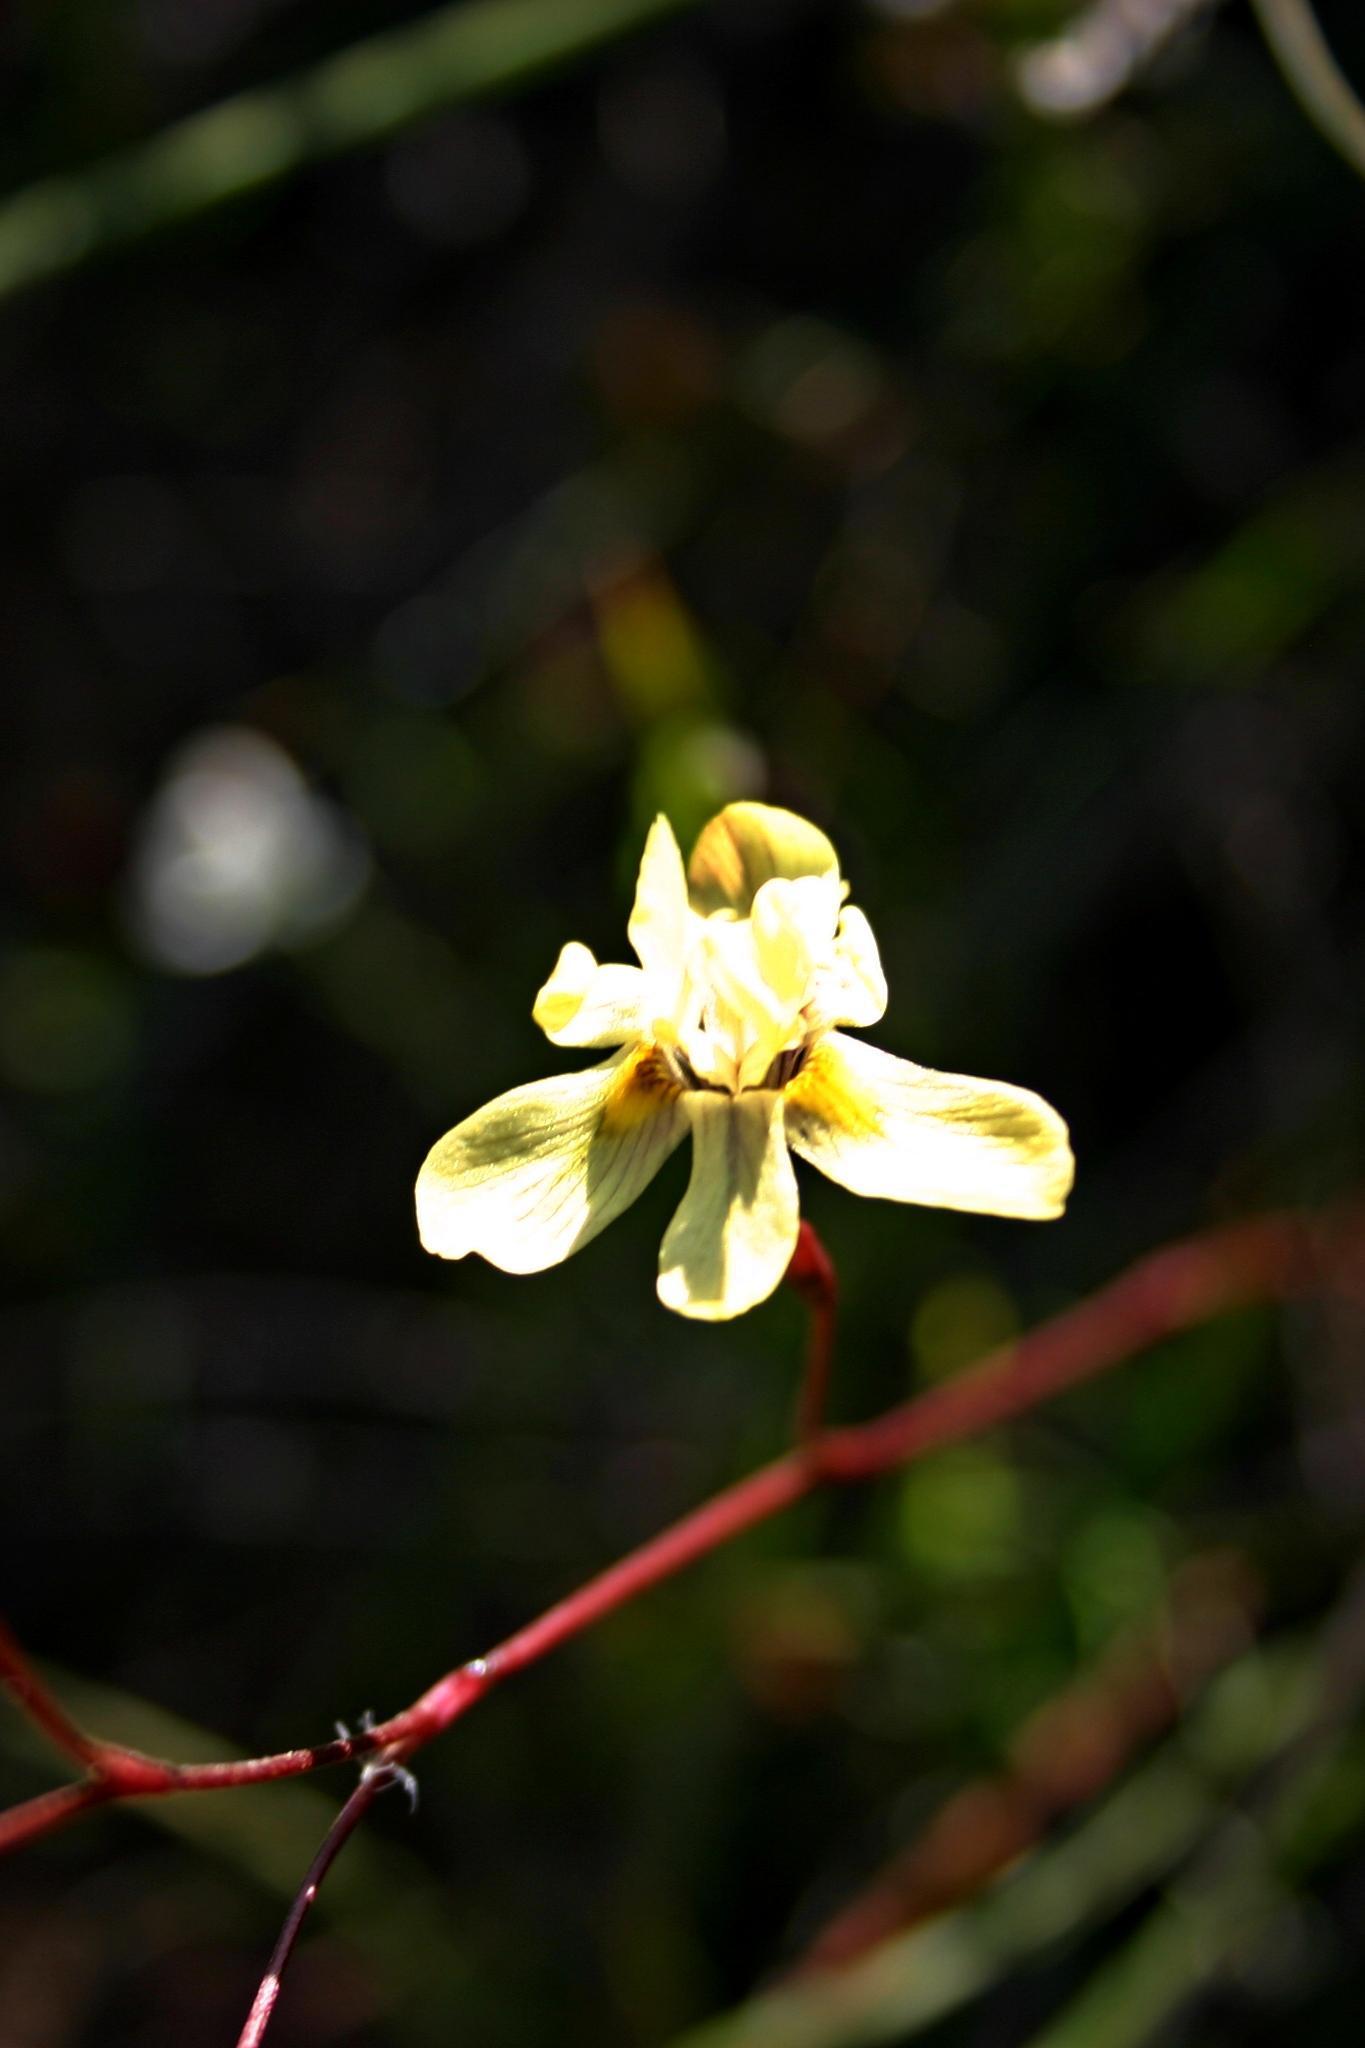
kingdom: Plantae
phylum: Tracheophyta
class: Liliopsida
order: Asparagales
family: Iridaceae
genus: Moraea
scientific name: Moraea gawleri
